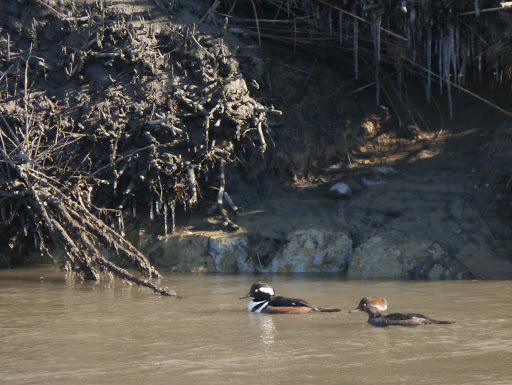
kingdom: Animalia
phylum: Chordata
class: Aves
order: Anseriformes
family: Anatidae
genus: Lophodytes
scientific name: Lophodytes cucullatus
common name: Hooded merganser
